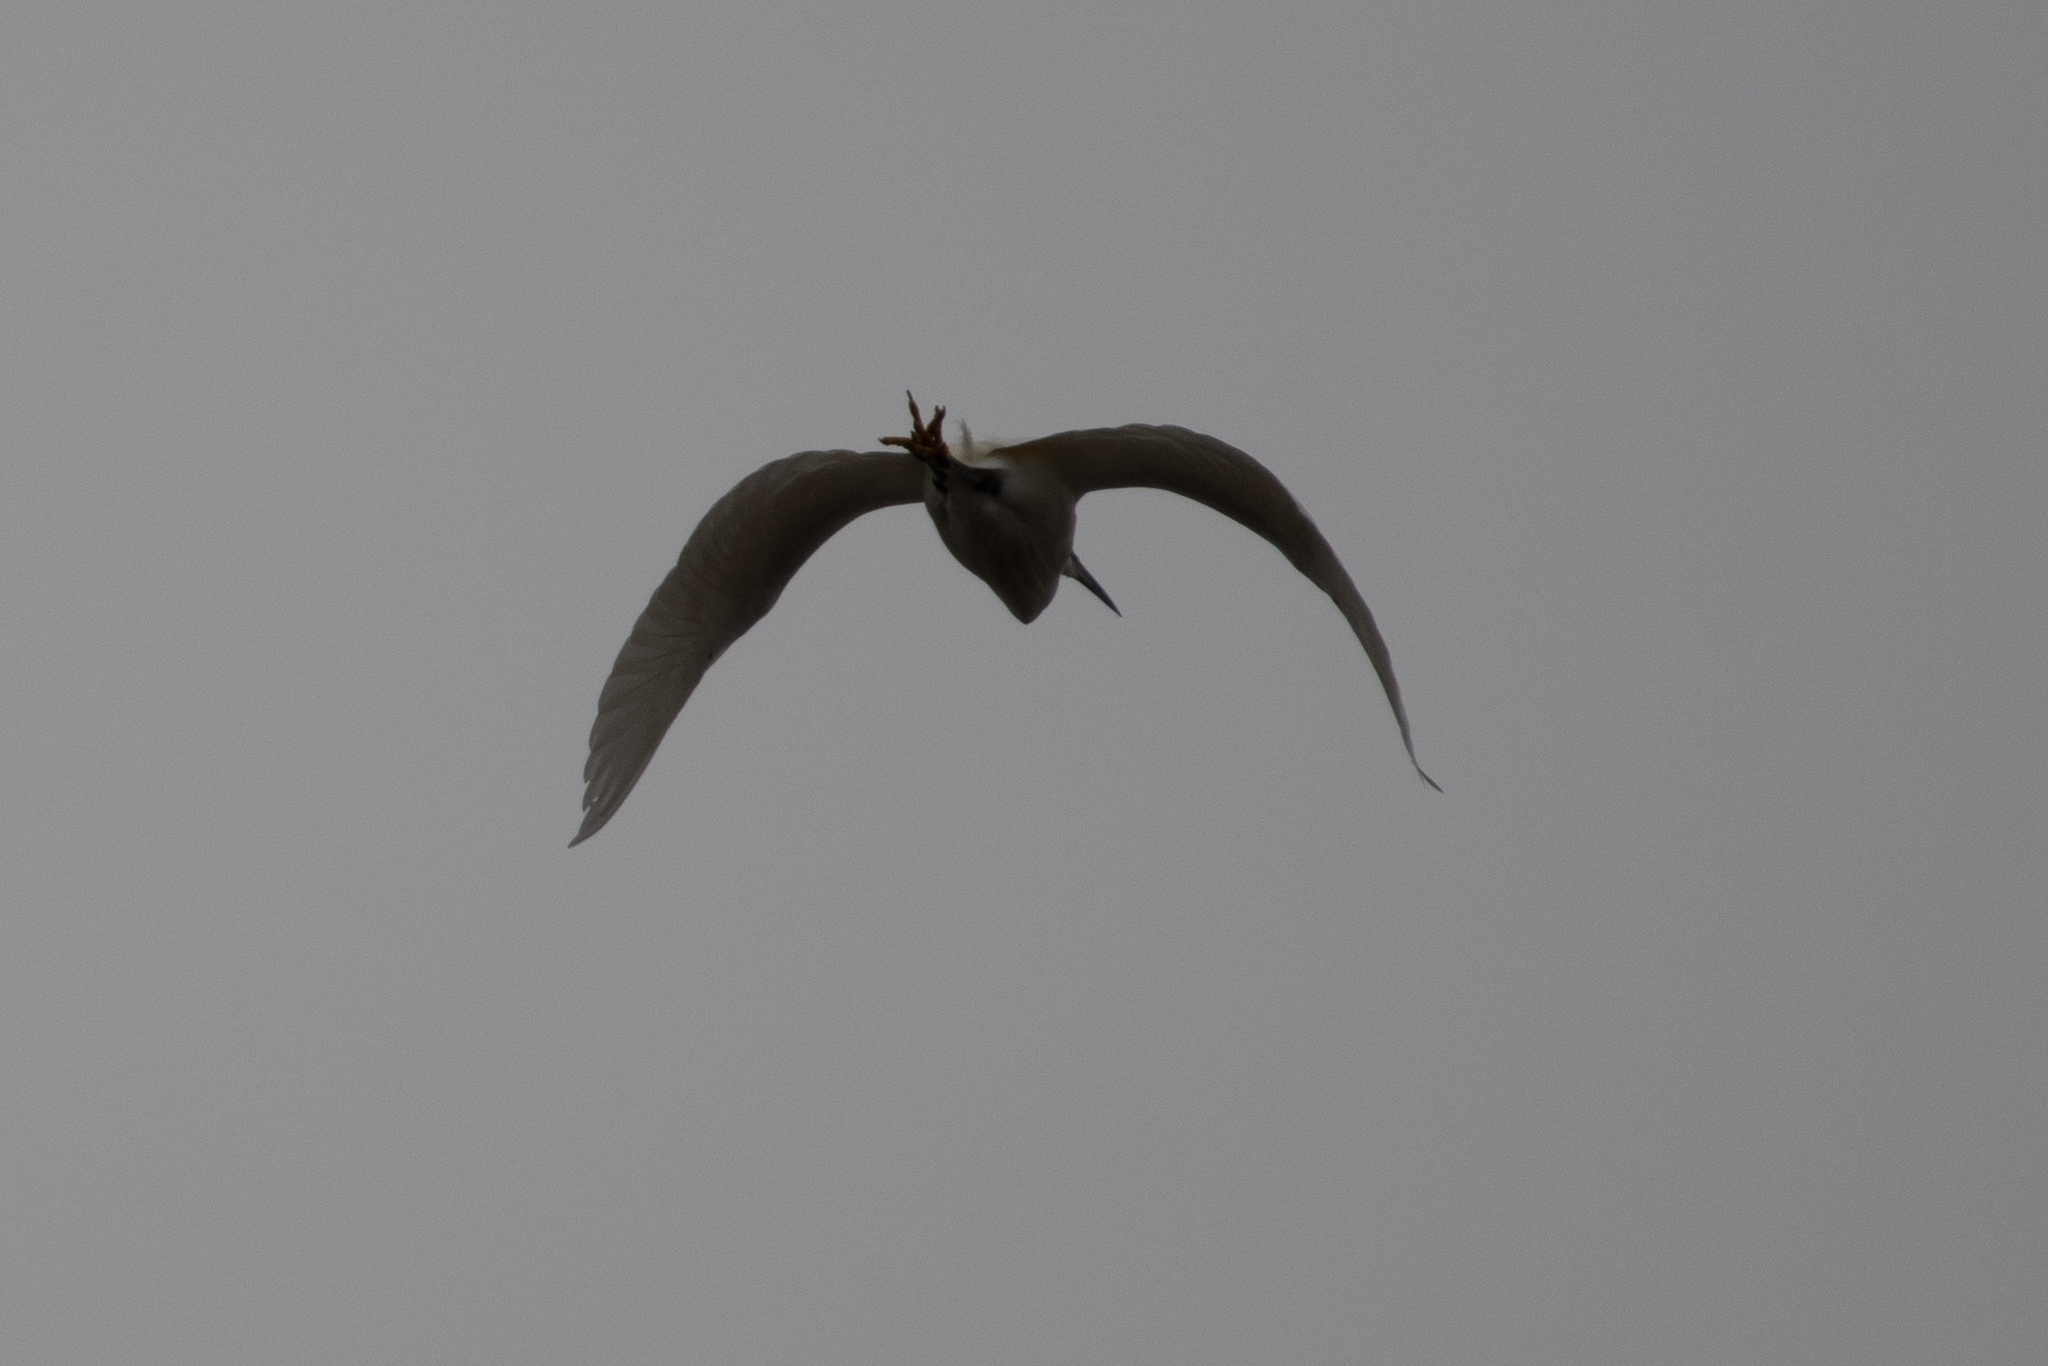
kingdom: Animalia
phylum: Chordata
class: Aves
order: Pelecaniformes
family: Ardeidae
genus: Egretta
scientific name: Egretta thula
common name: Snowy egret
